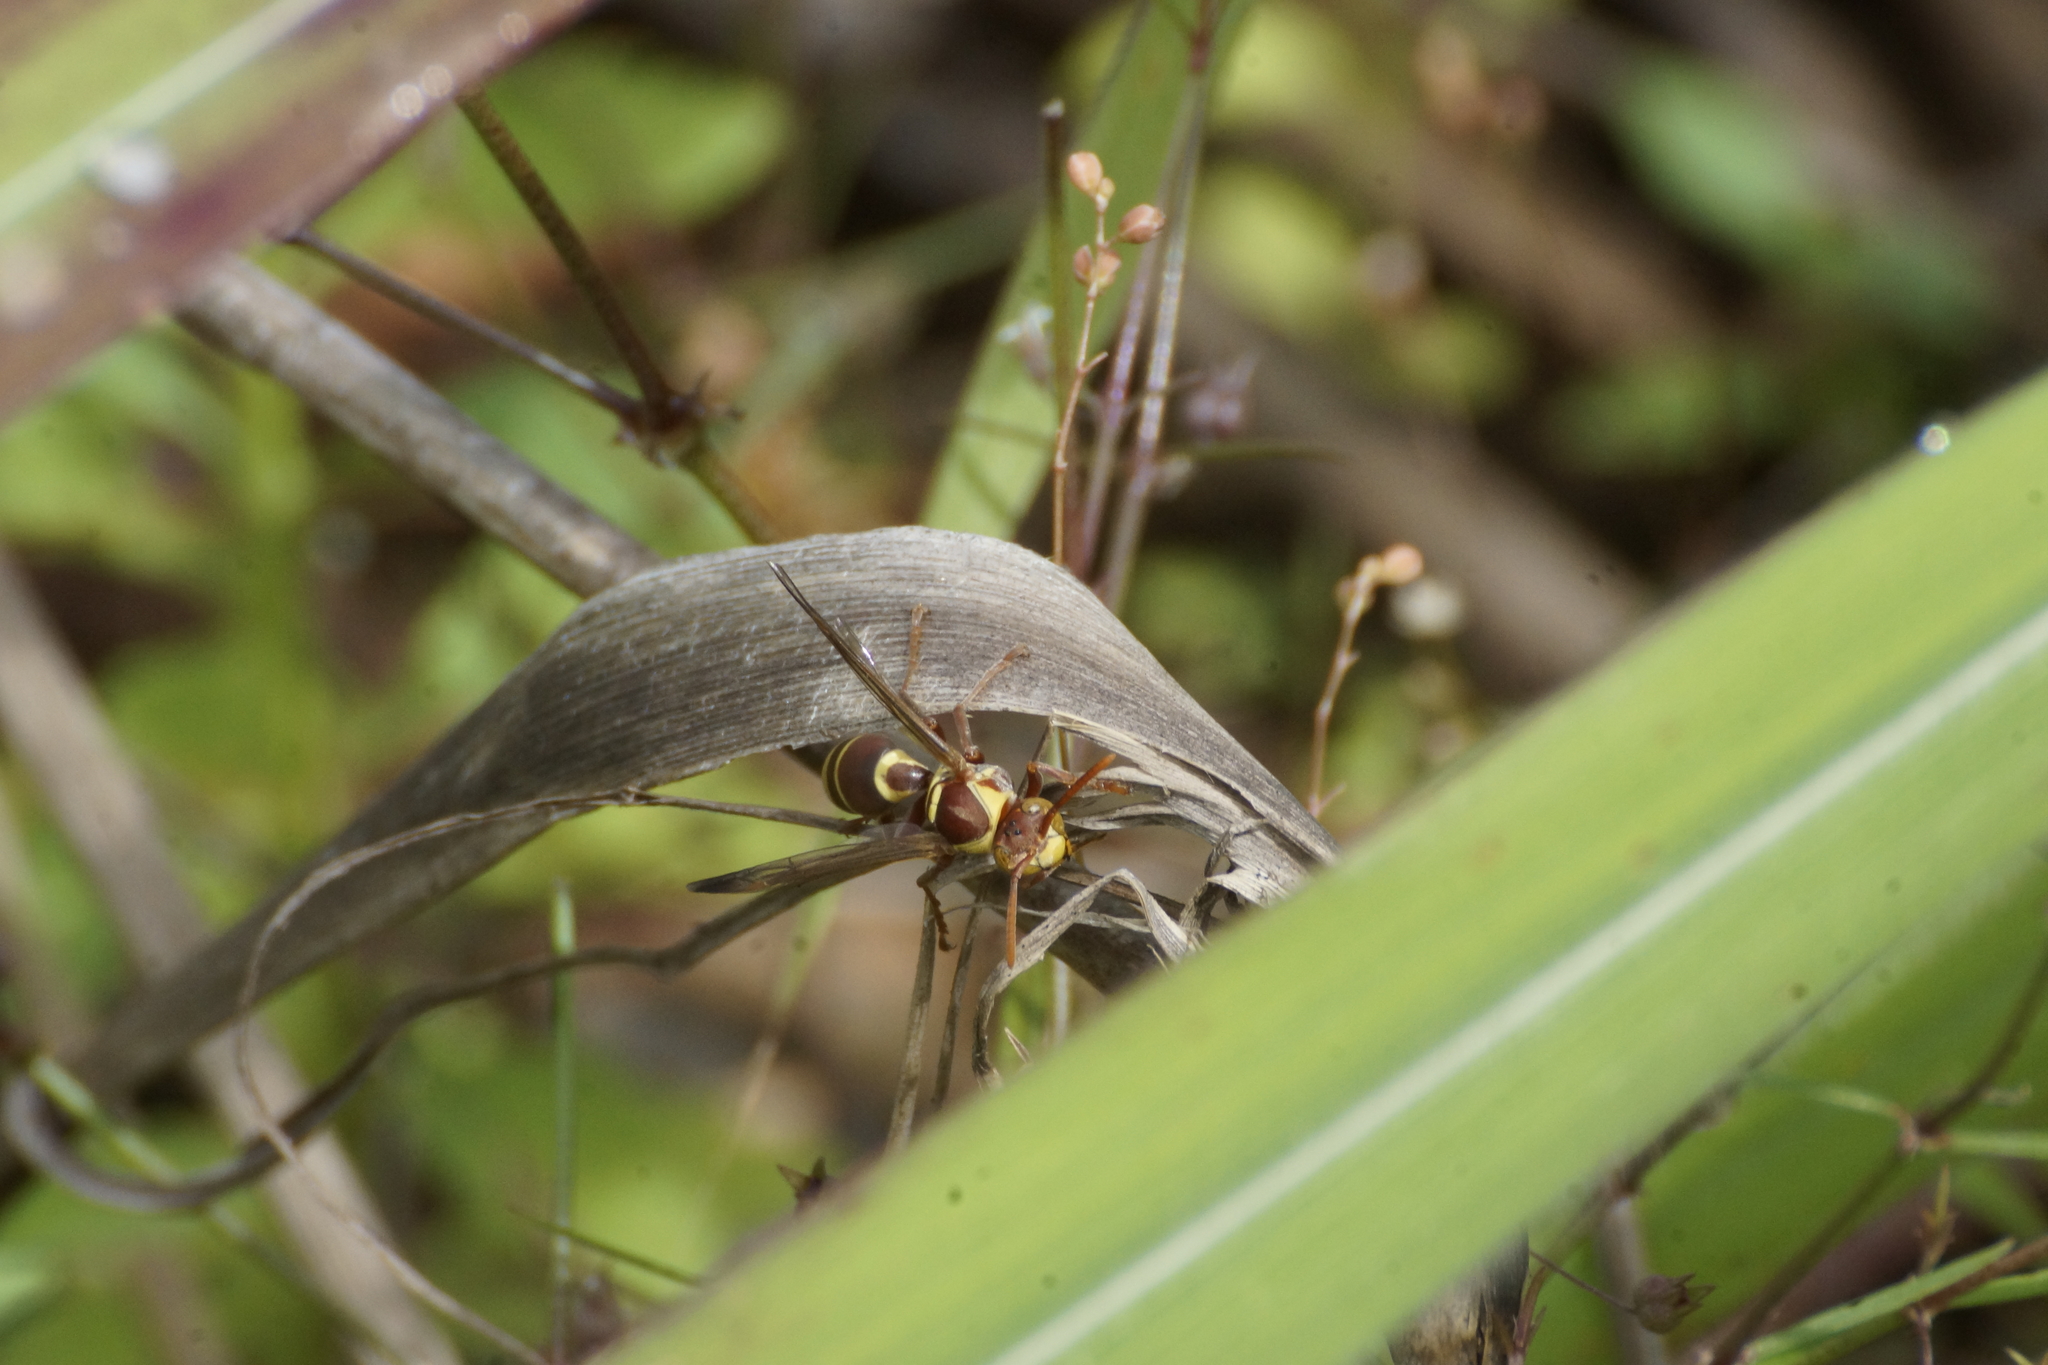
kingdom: Animalia
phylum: Arthropoda
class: Insecta
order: Hymenoptera
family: Eumenidae
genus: Polistes
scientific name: Polistes stigma
